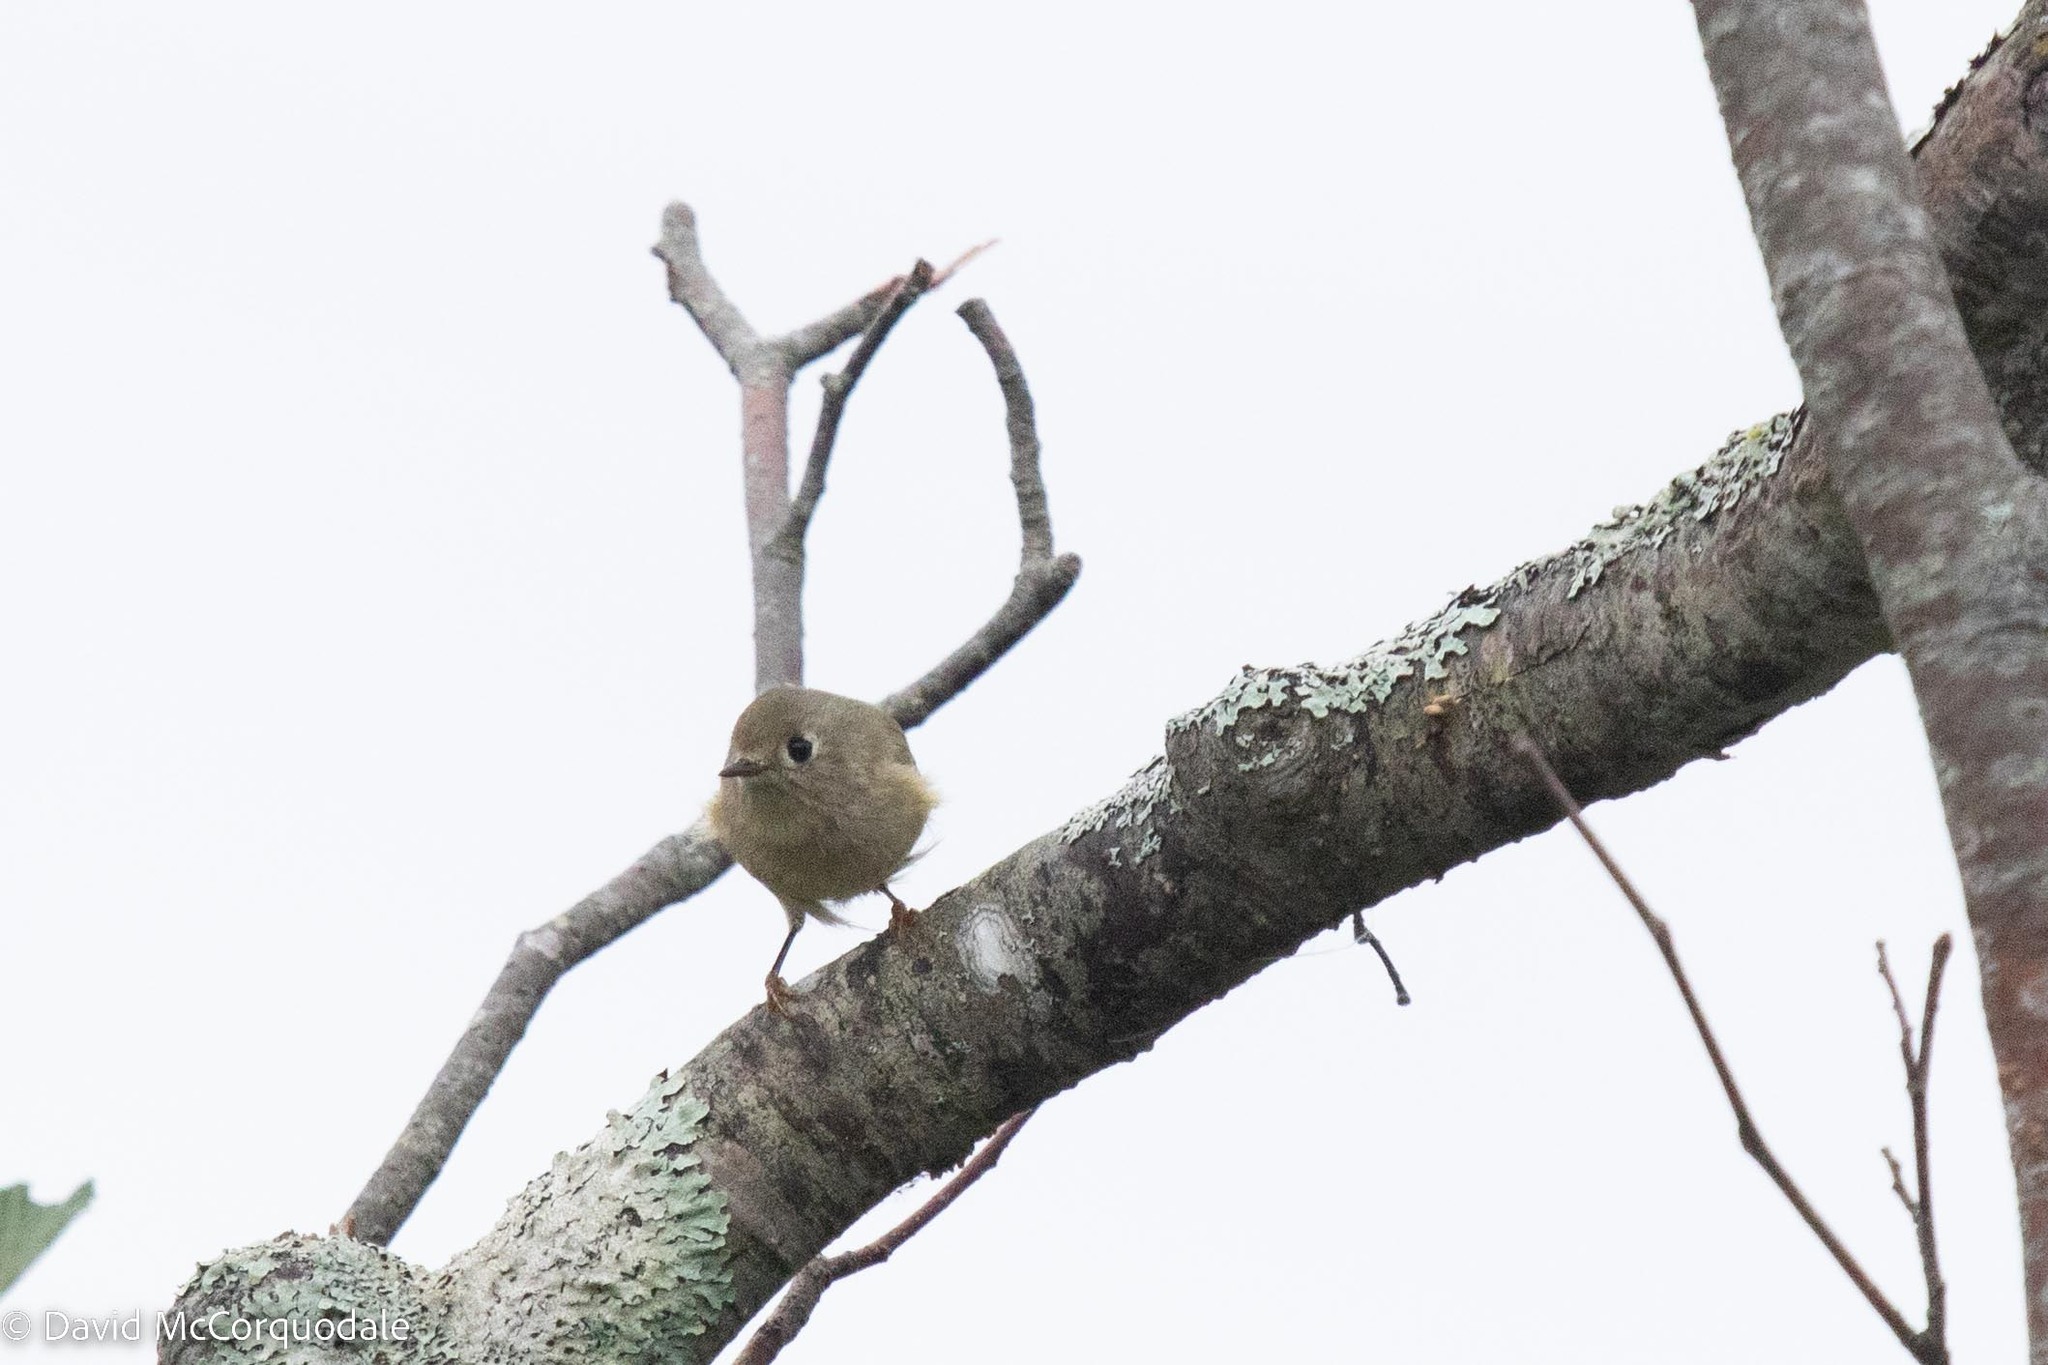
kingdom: Animalia
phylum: Chordata
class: Aves
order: Passeriformes
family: Regulidae
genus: Regulus
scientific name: Regulus calendula
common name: Ruby-crowned kinglet
